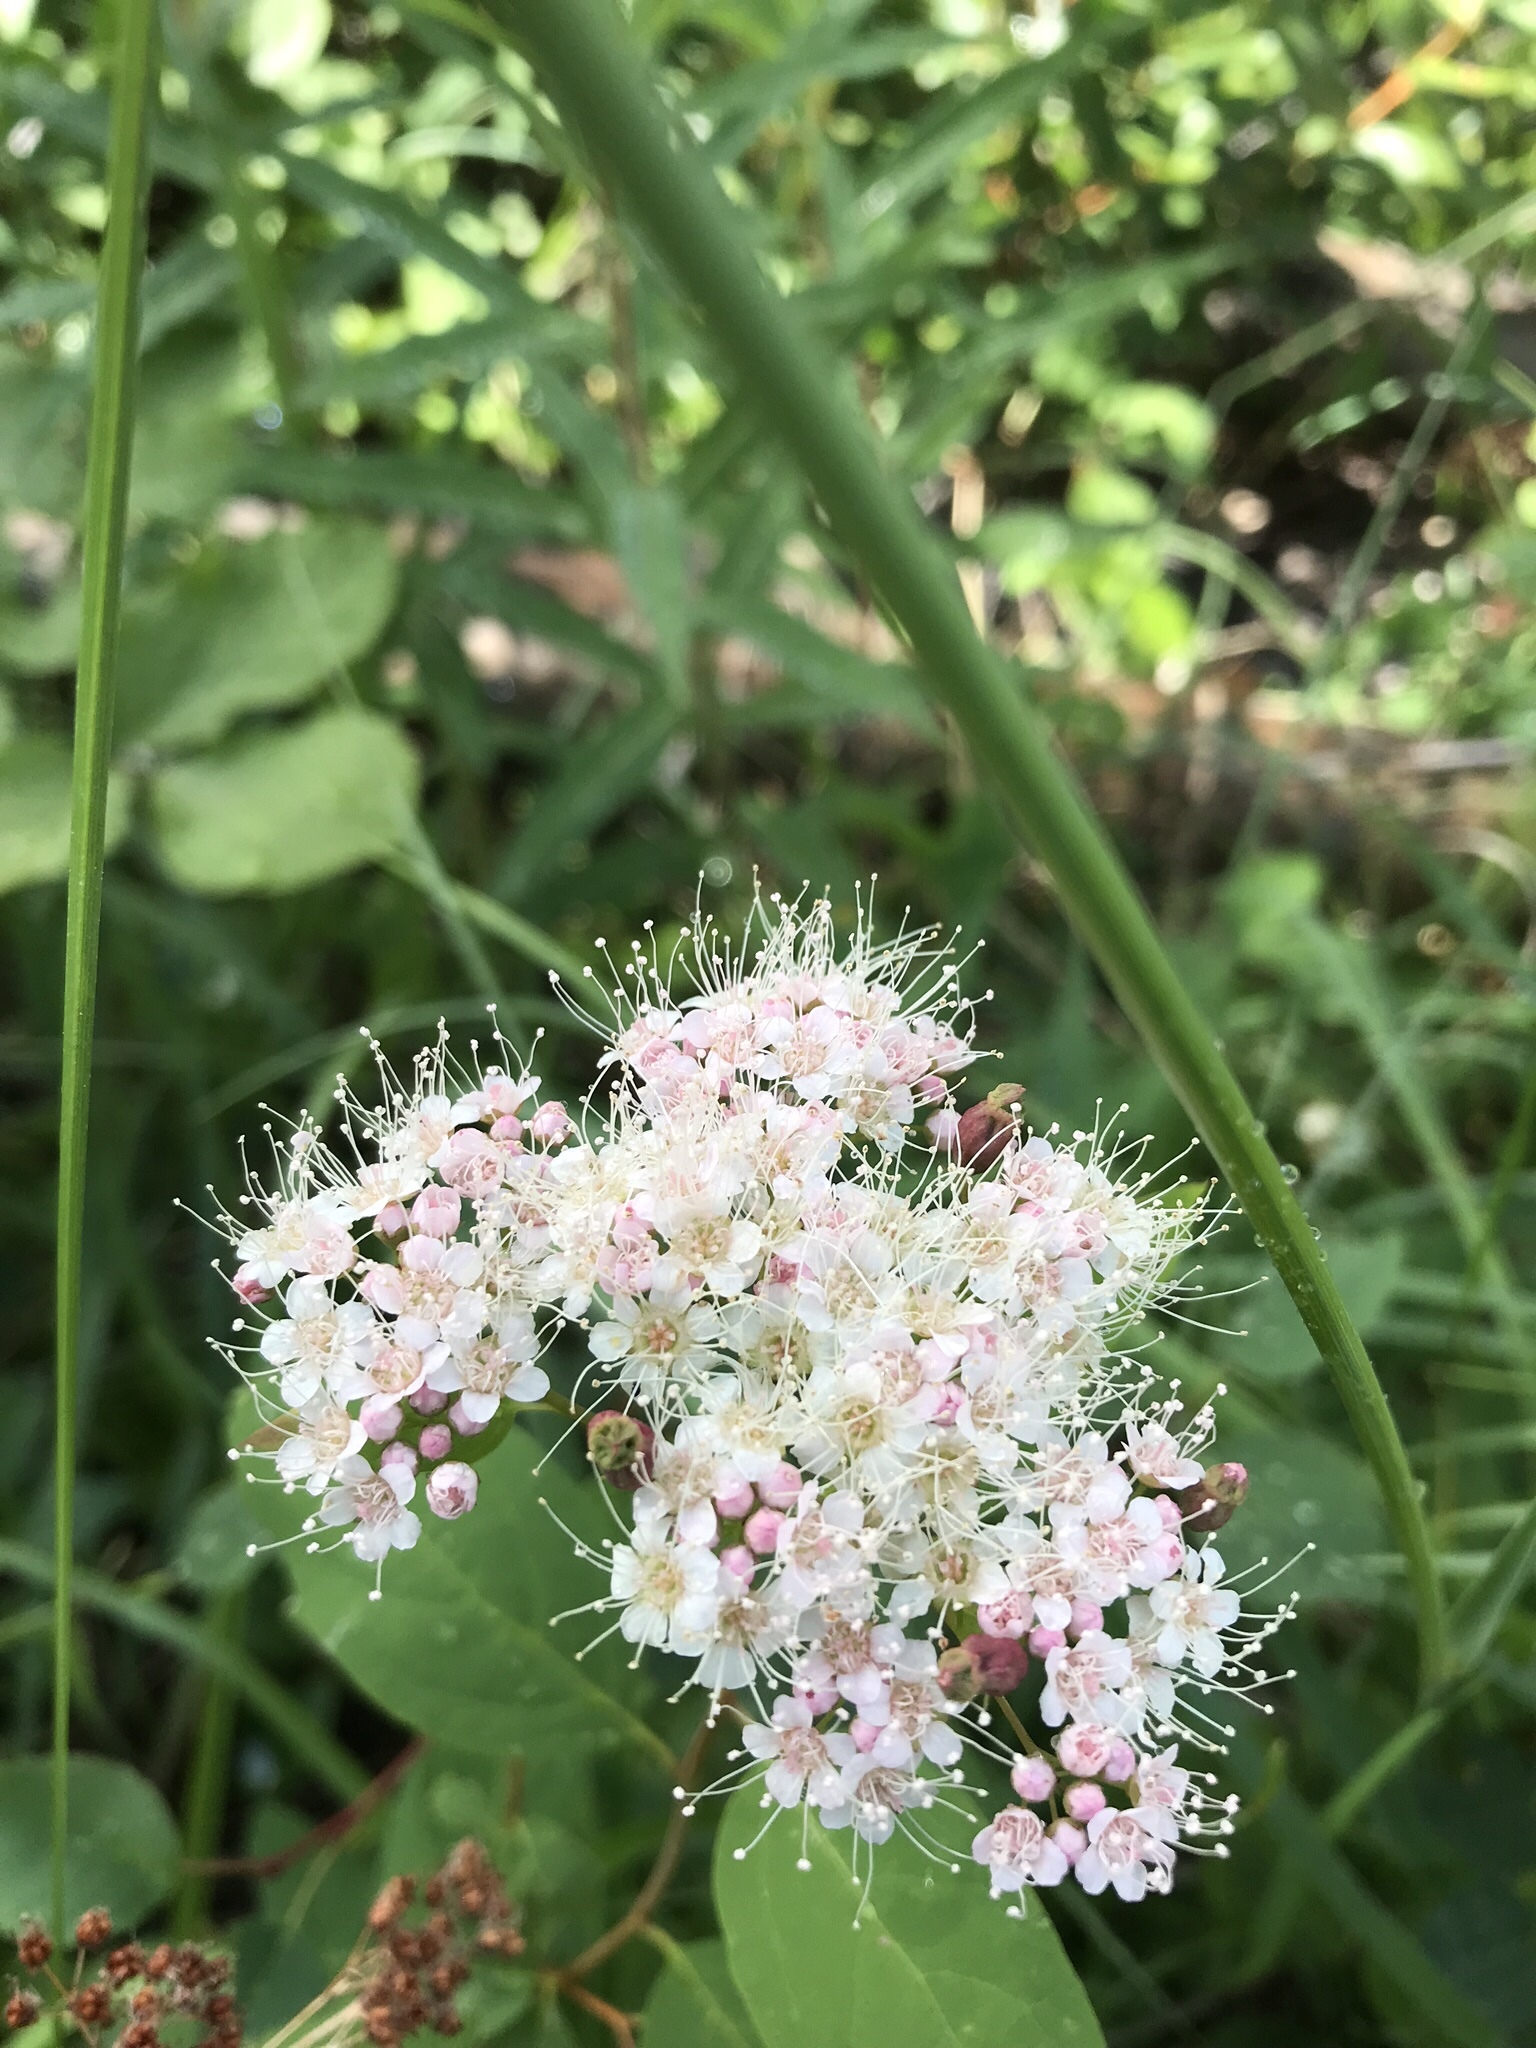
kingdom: Plantae
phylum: Tracheophyta
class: Magnoliopsida
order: Rosales
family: Rosaceae
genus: Spiraea
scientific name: Spiraea lucida
